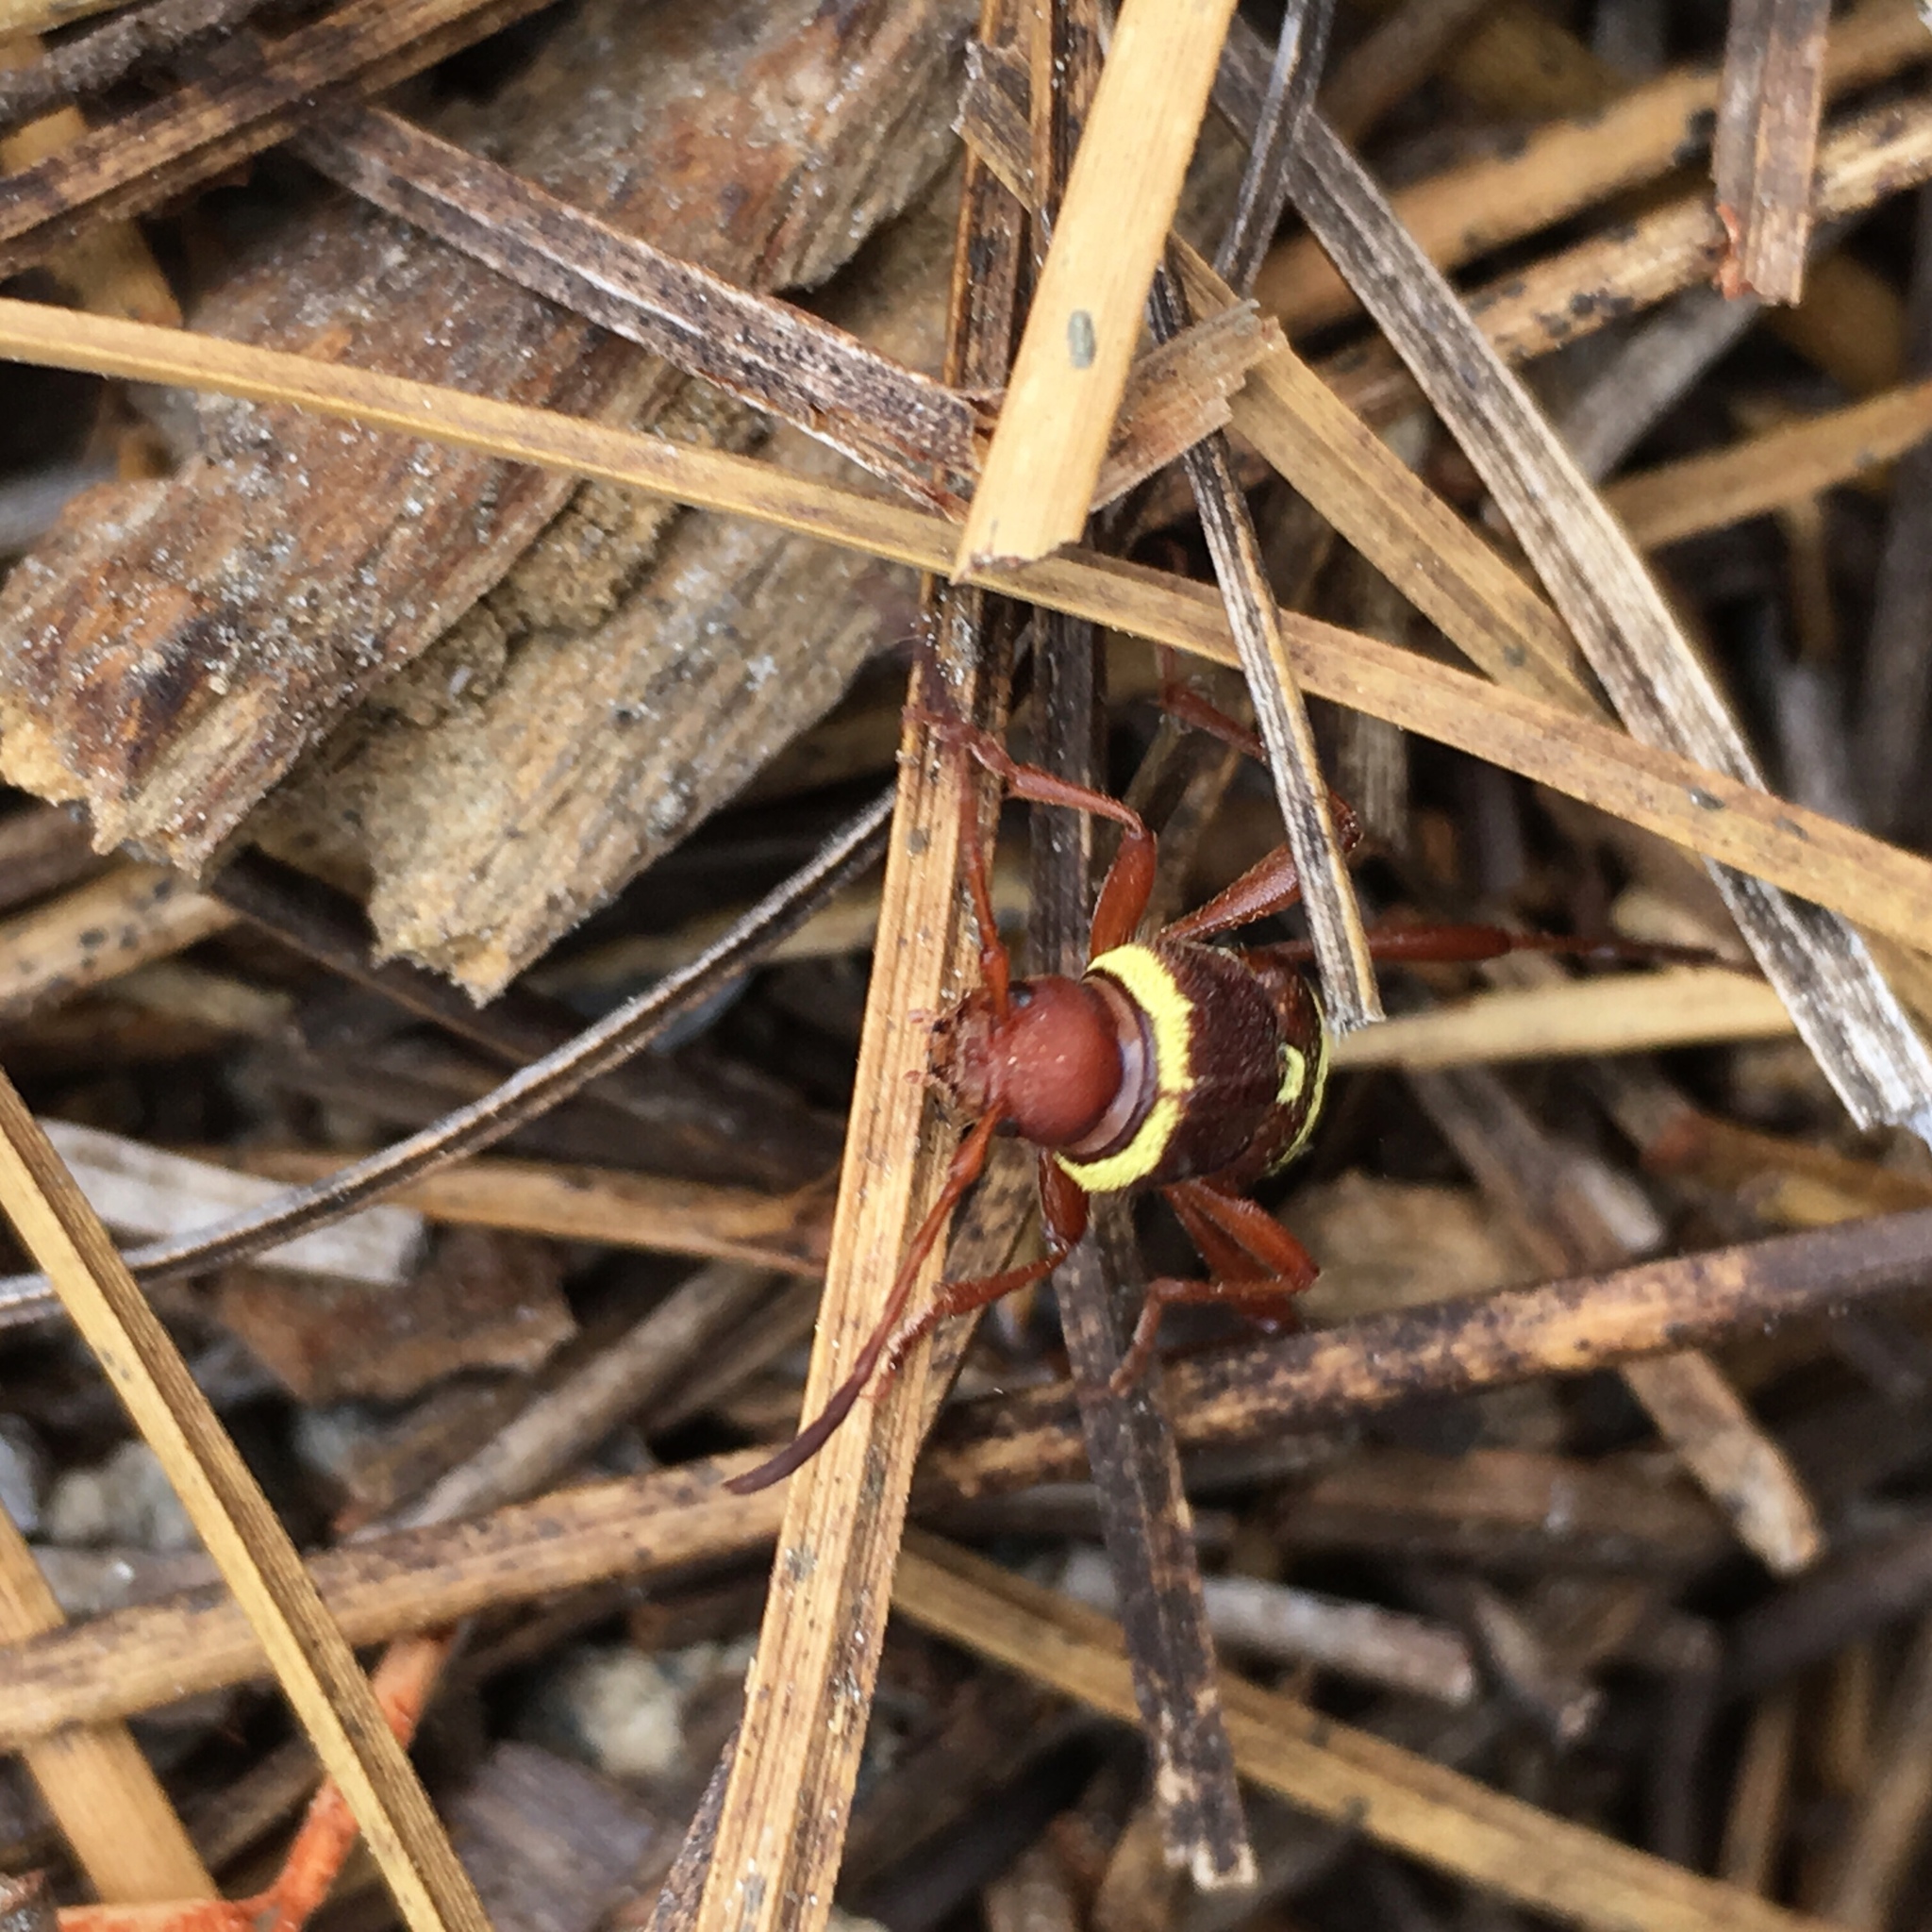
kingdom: Animalia
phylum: Arthropoda
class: Insecta
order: Coleoptera
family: Cerambycidae
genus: Neoclytus
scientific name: Neoclytus resplendens
